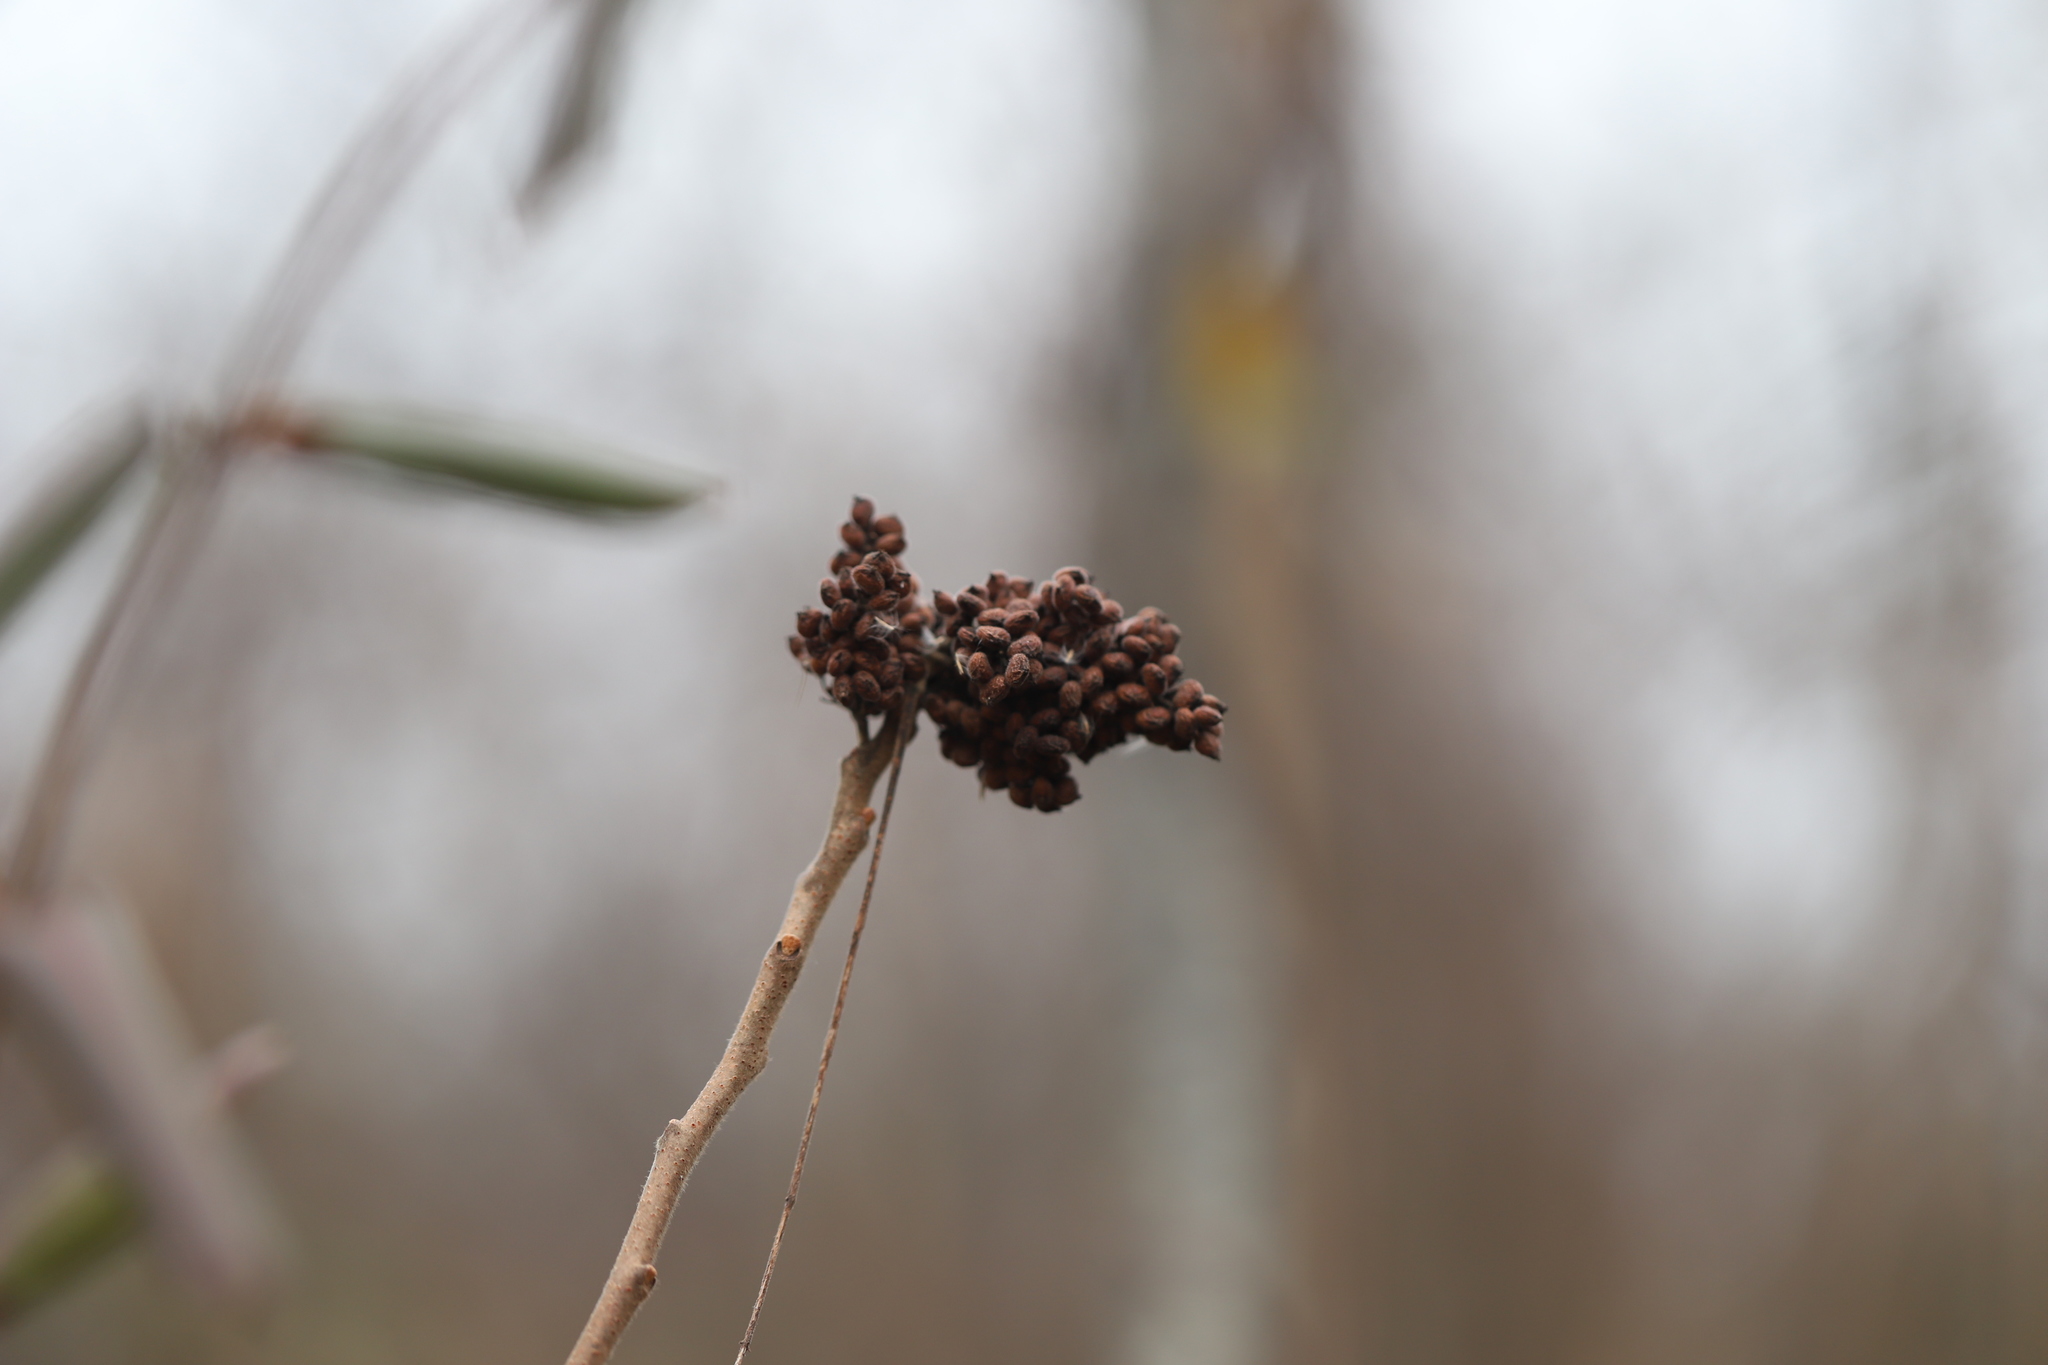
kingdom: Plantae
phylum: Tracheophyta
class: Magnoliopsida
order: Sapindales
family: Anacardiaceae
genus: Rhus
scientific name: Rhus copallina
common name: Shining sumac
